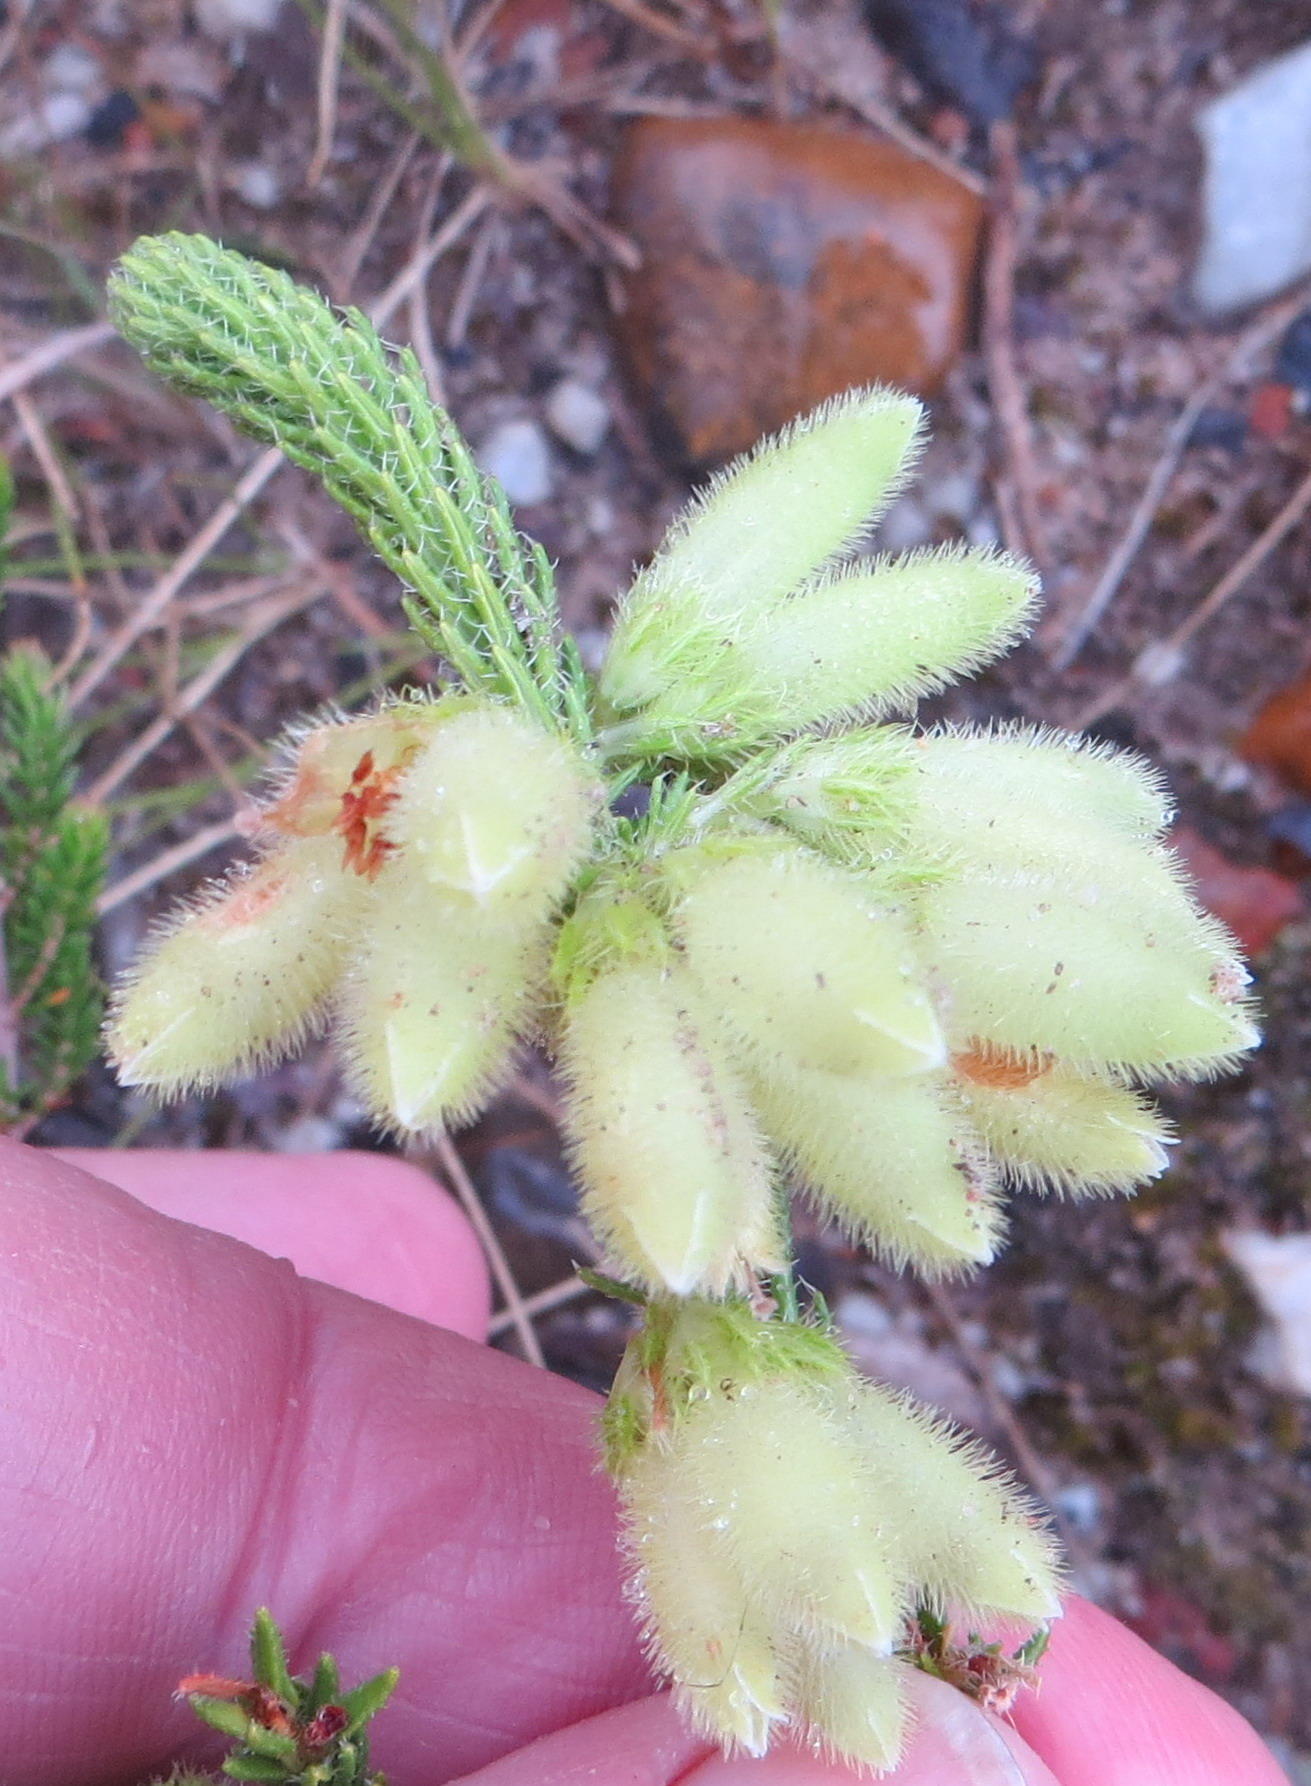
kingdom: Plantae
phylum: Tracheophyta
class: Magnoliopsida
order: Ericales
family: Ericaceae
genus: Erica
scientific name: Erica sparmannii
